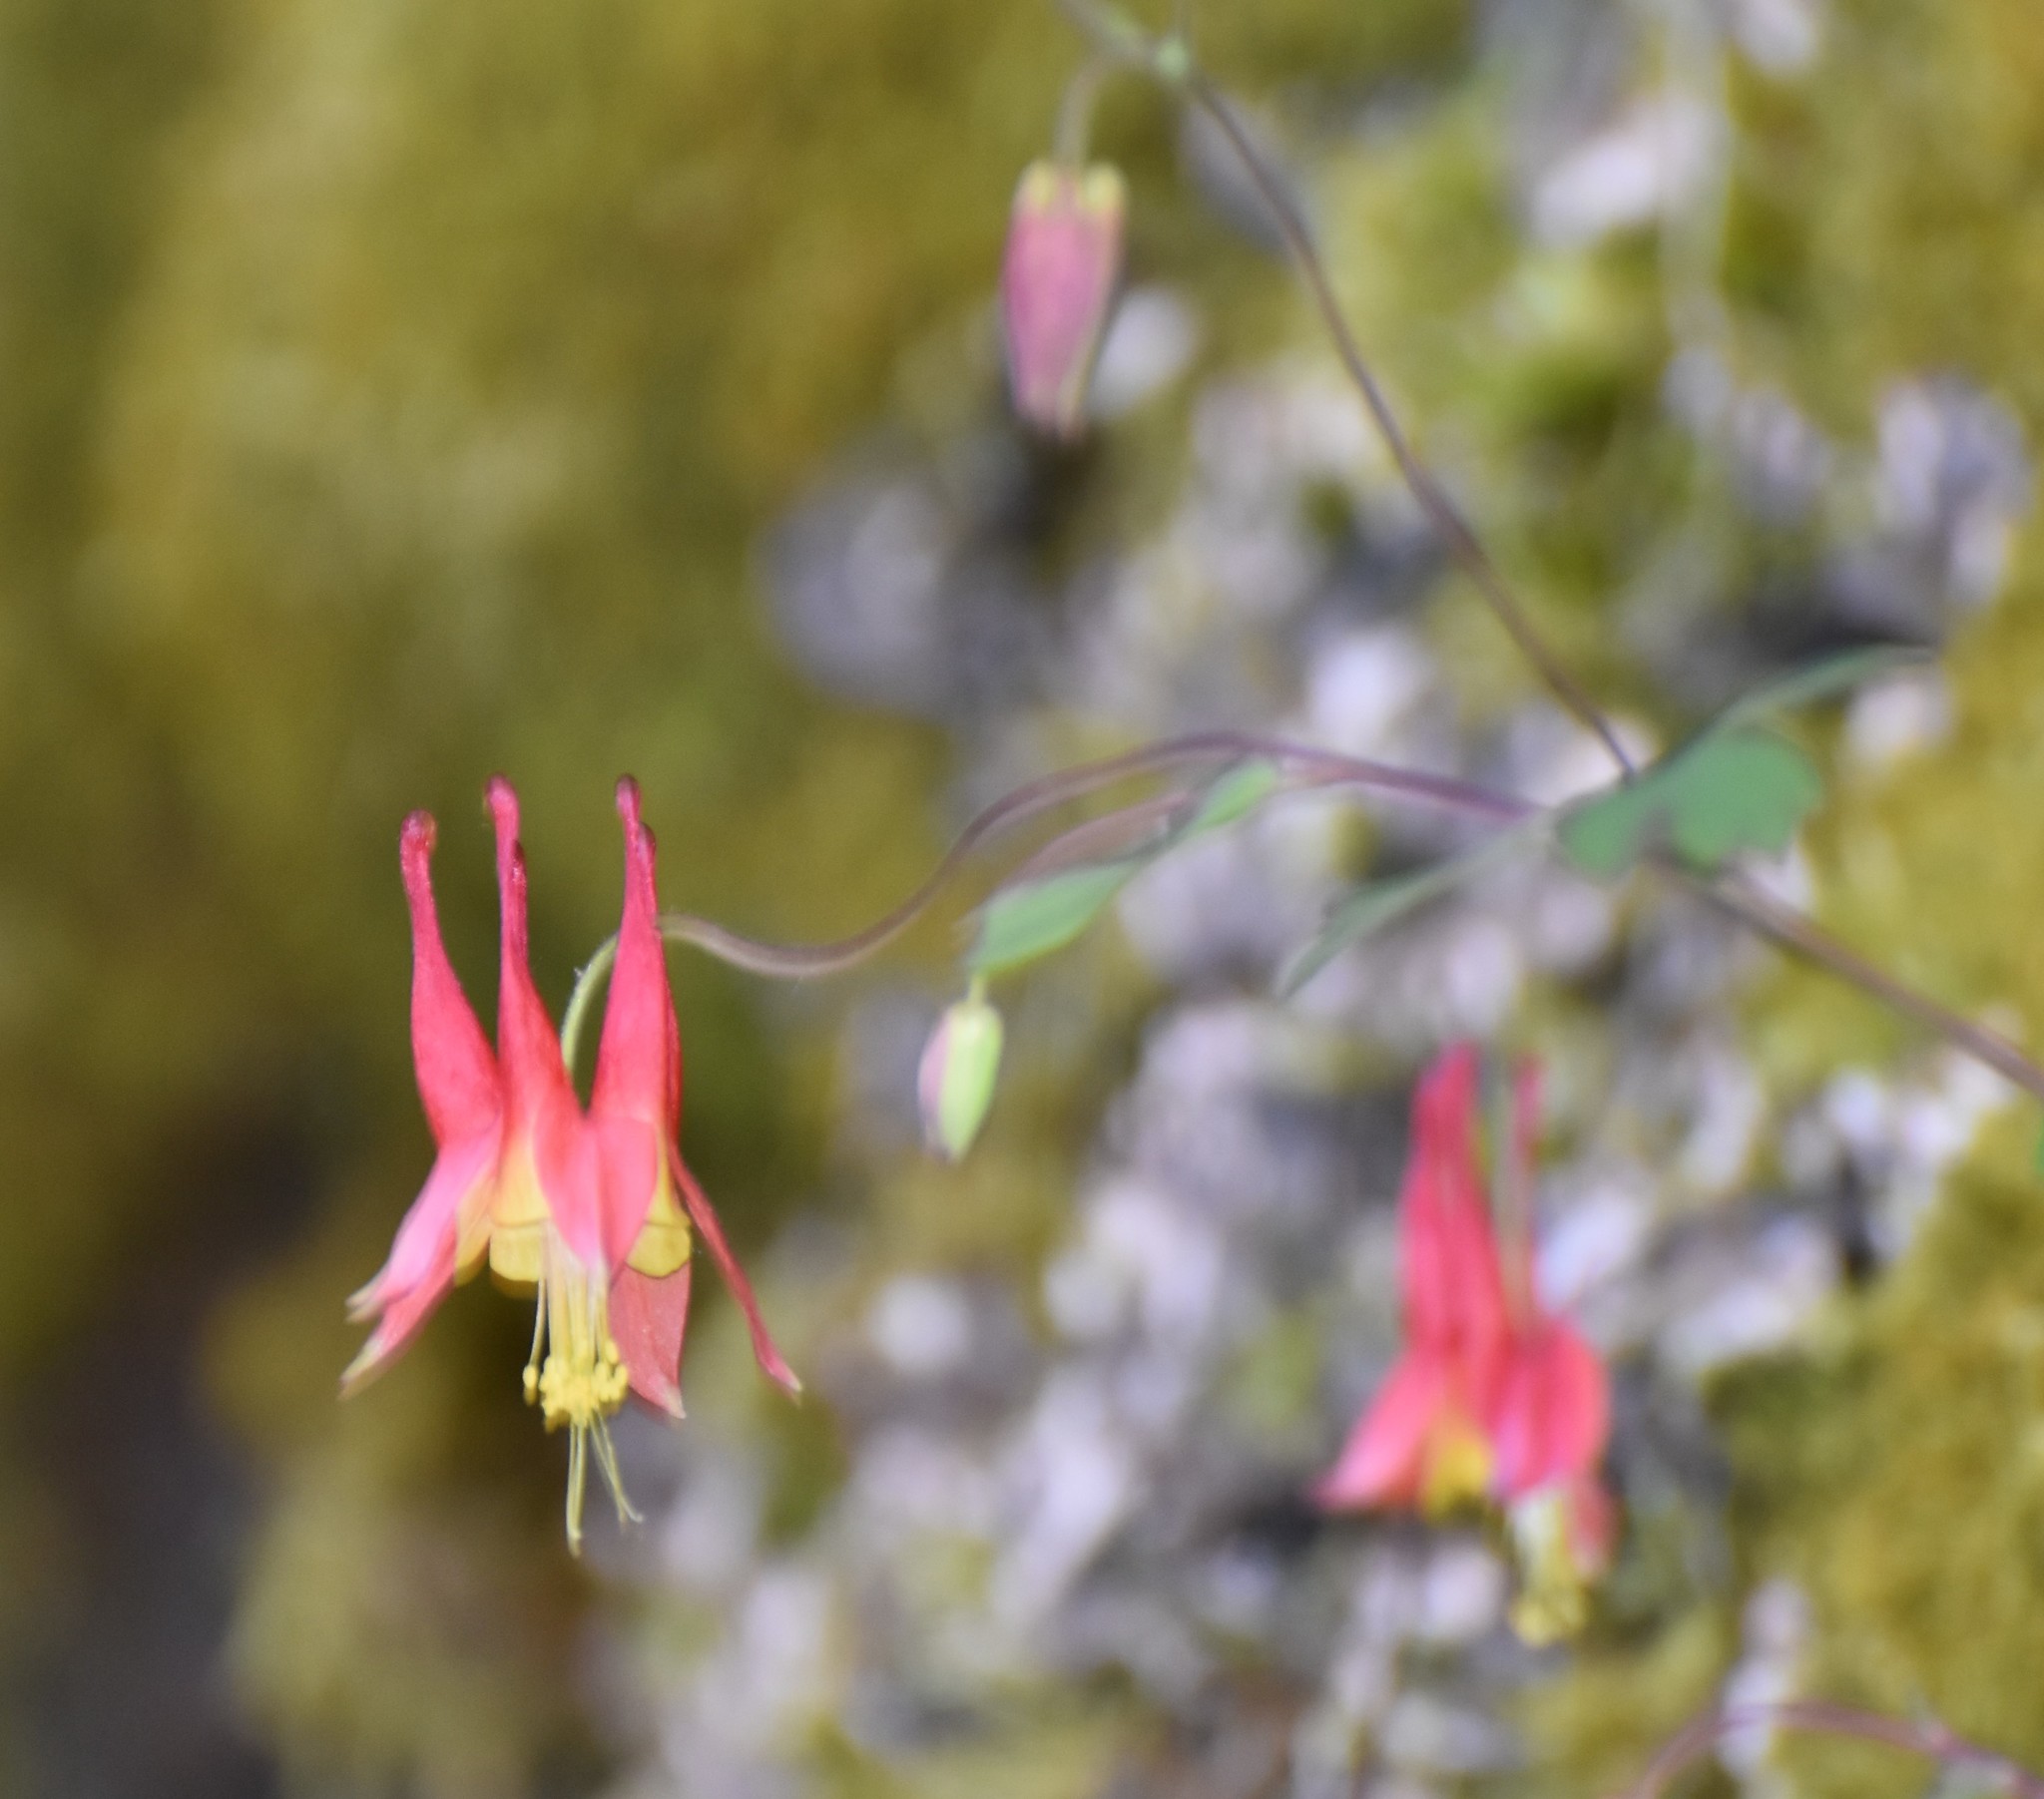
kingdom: Plantae
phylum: Tracheophyta
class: Magnoliopsida
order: Ranunculales
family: Ranunculaceae
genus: Aquilegia
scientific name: Aquilegia canadensis
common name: American columbine
